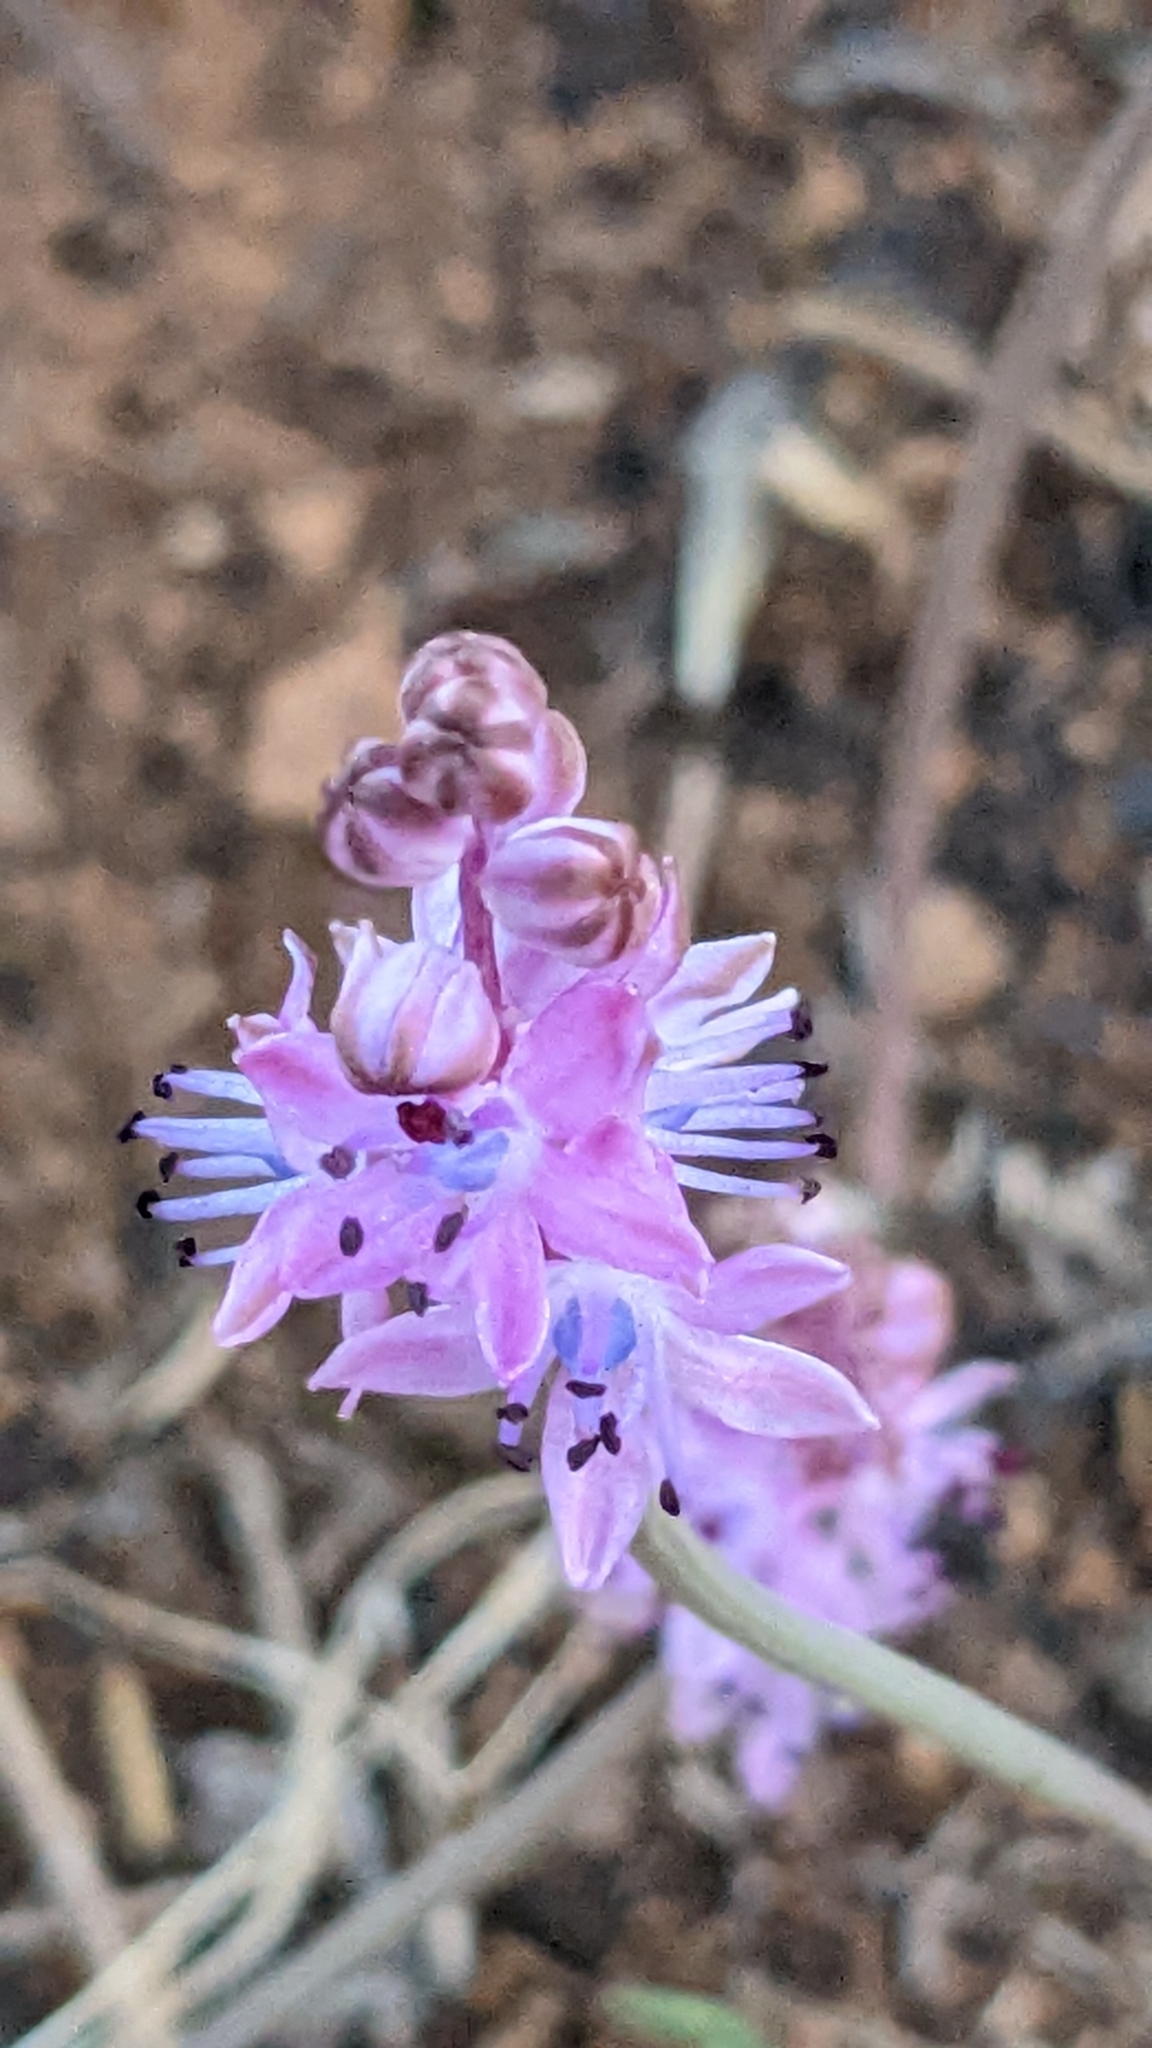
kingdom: Plantae
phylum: Tracheophyta
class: Liliopsida
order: Asparagales
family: Asparagaceae
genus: Prospero
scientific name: Prospero autumnale
